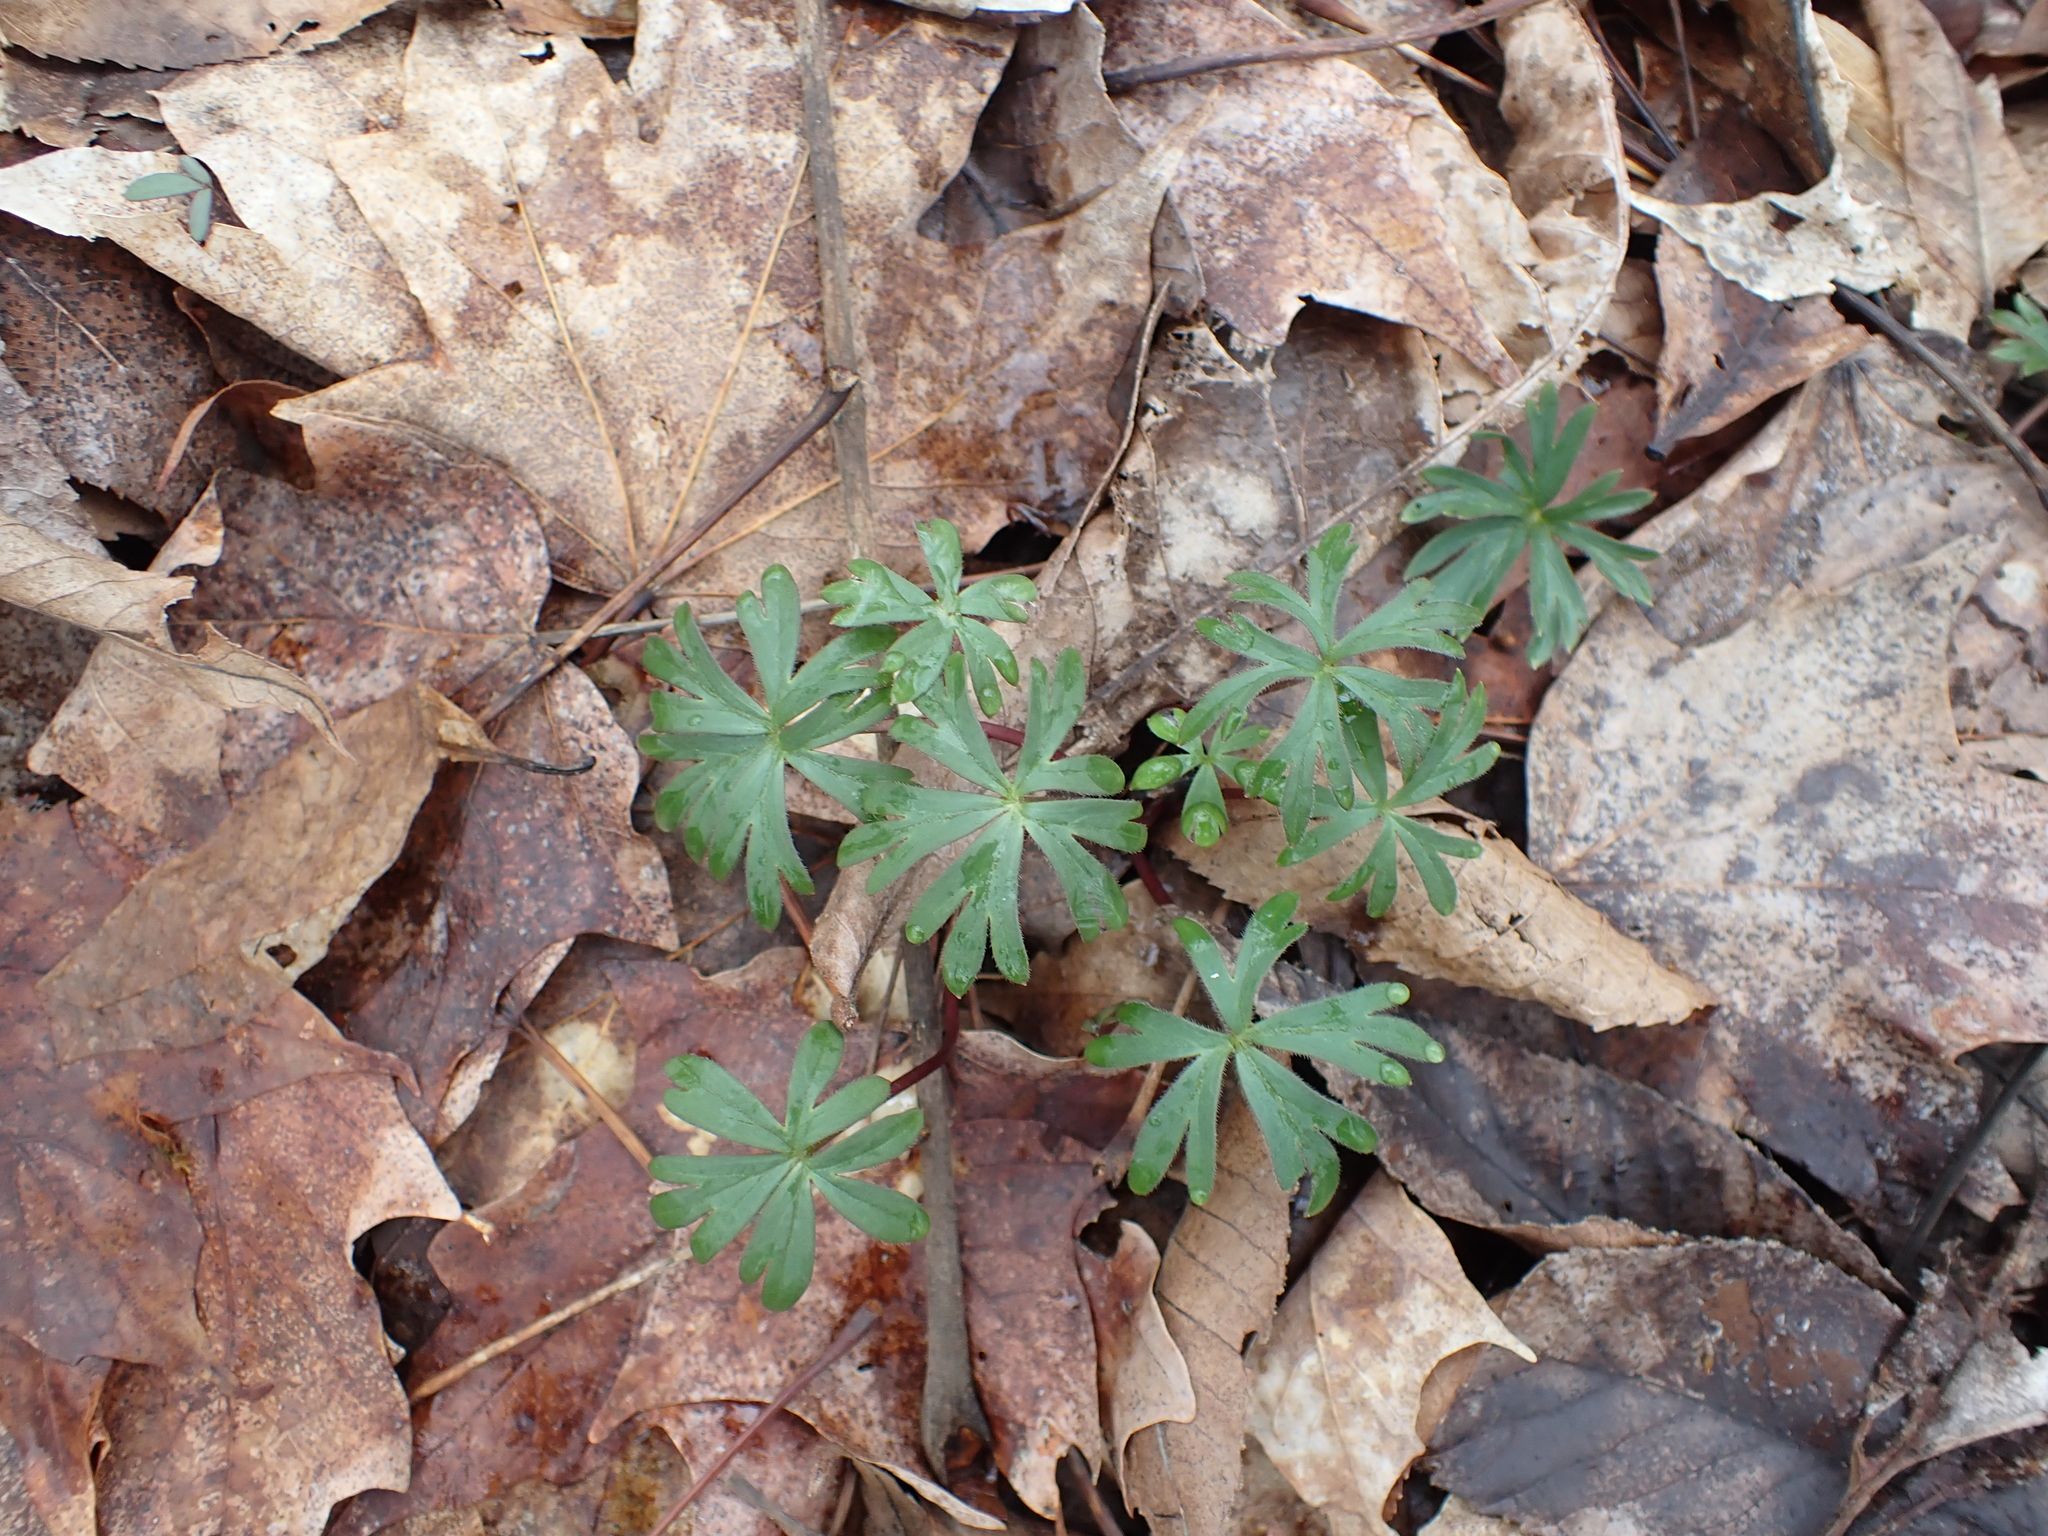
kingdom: Plantae
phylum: Tracheophyta
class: Magnoliopsida
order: Ranunculales
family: Ranunculaceae
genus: Delphinium
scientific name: Delphinium tricorne
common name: Dwarf larkspur
